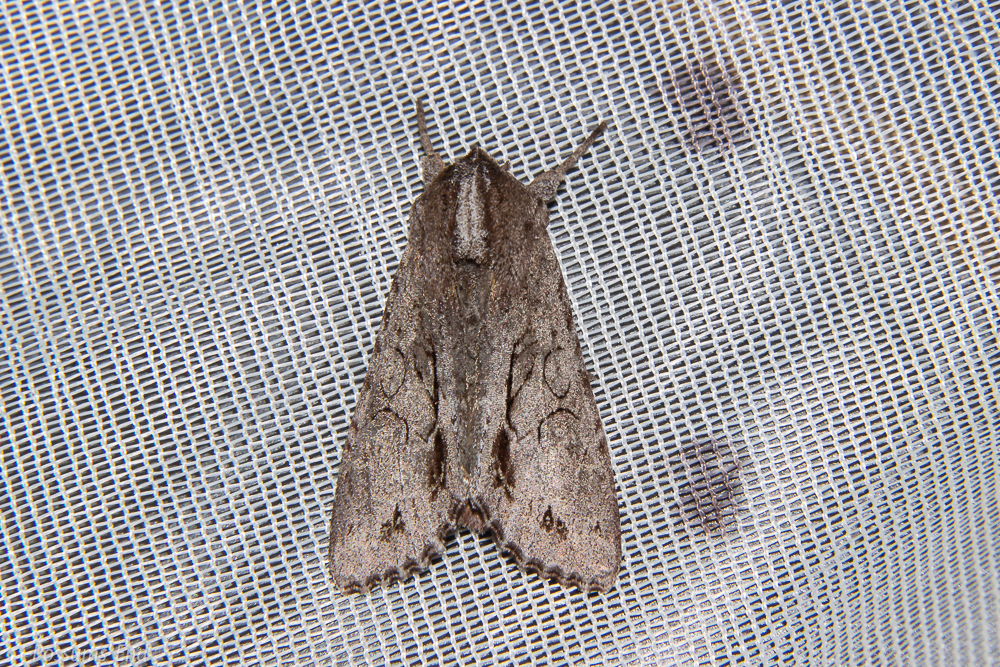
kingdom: Animalia
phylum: Arthropoda
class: Insecta
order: Lepidoptera
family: Noctuidae
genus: Ichneutica
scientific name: Ichneutica
